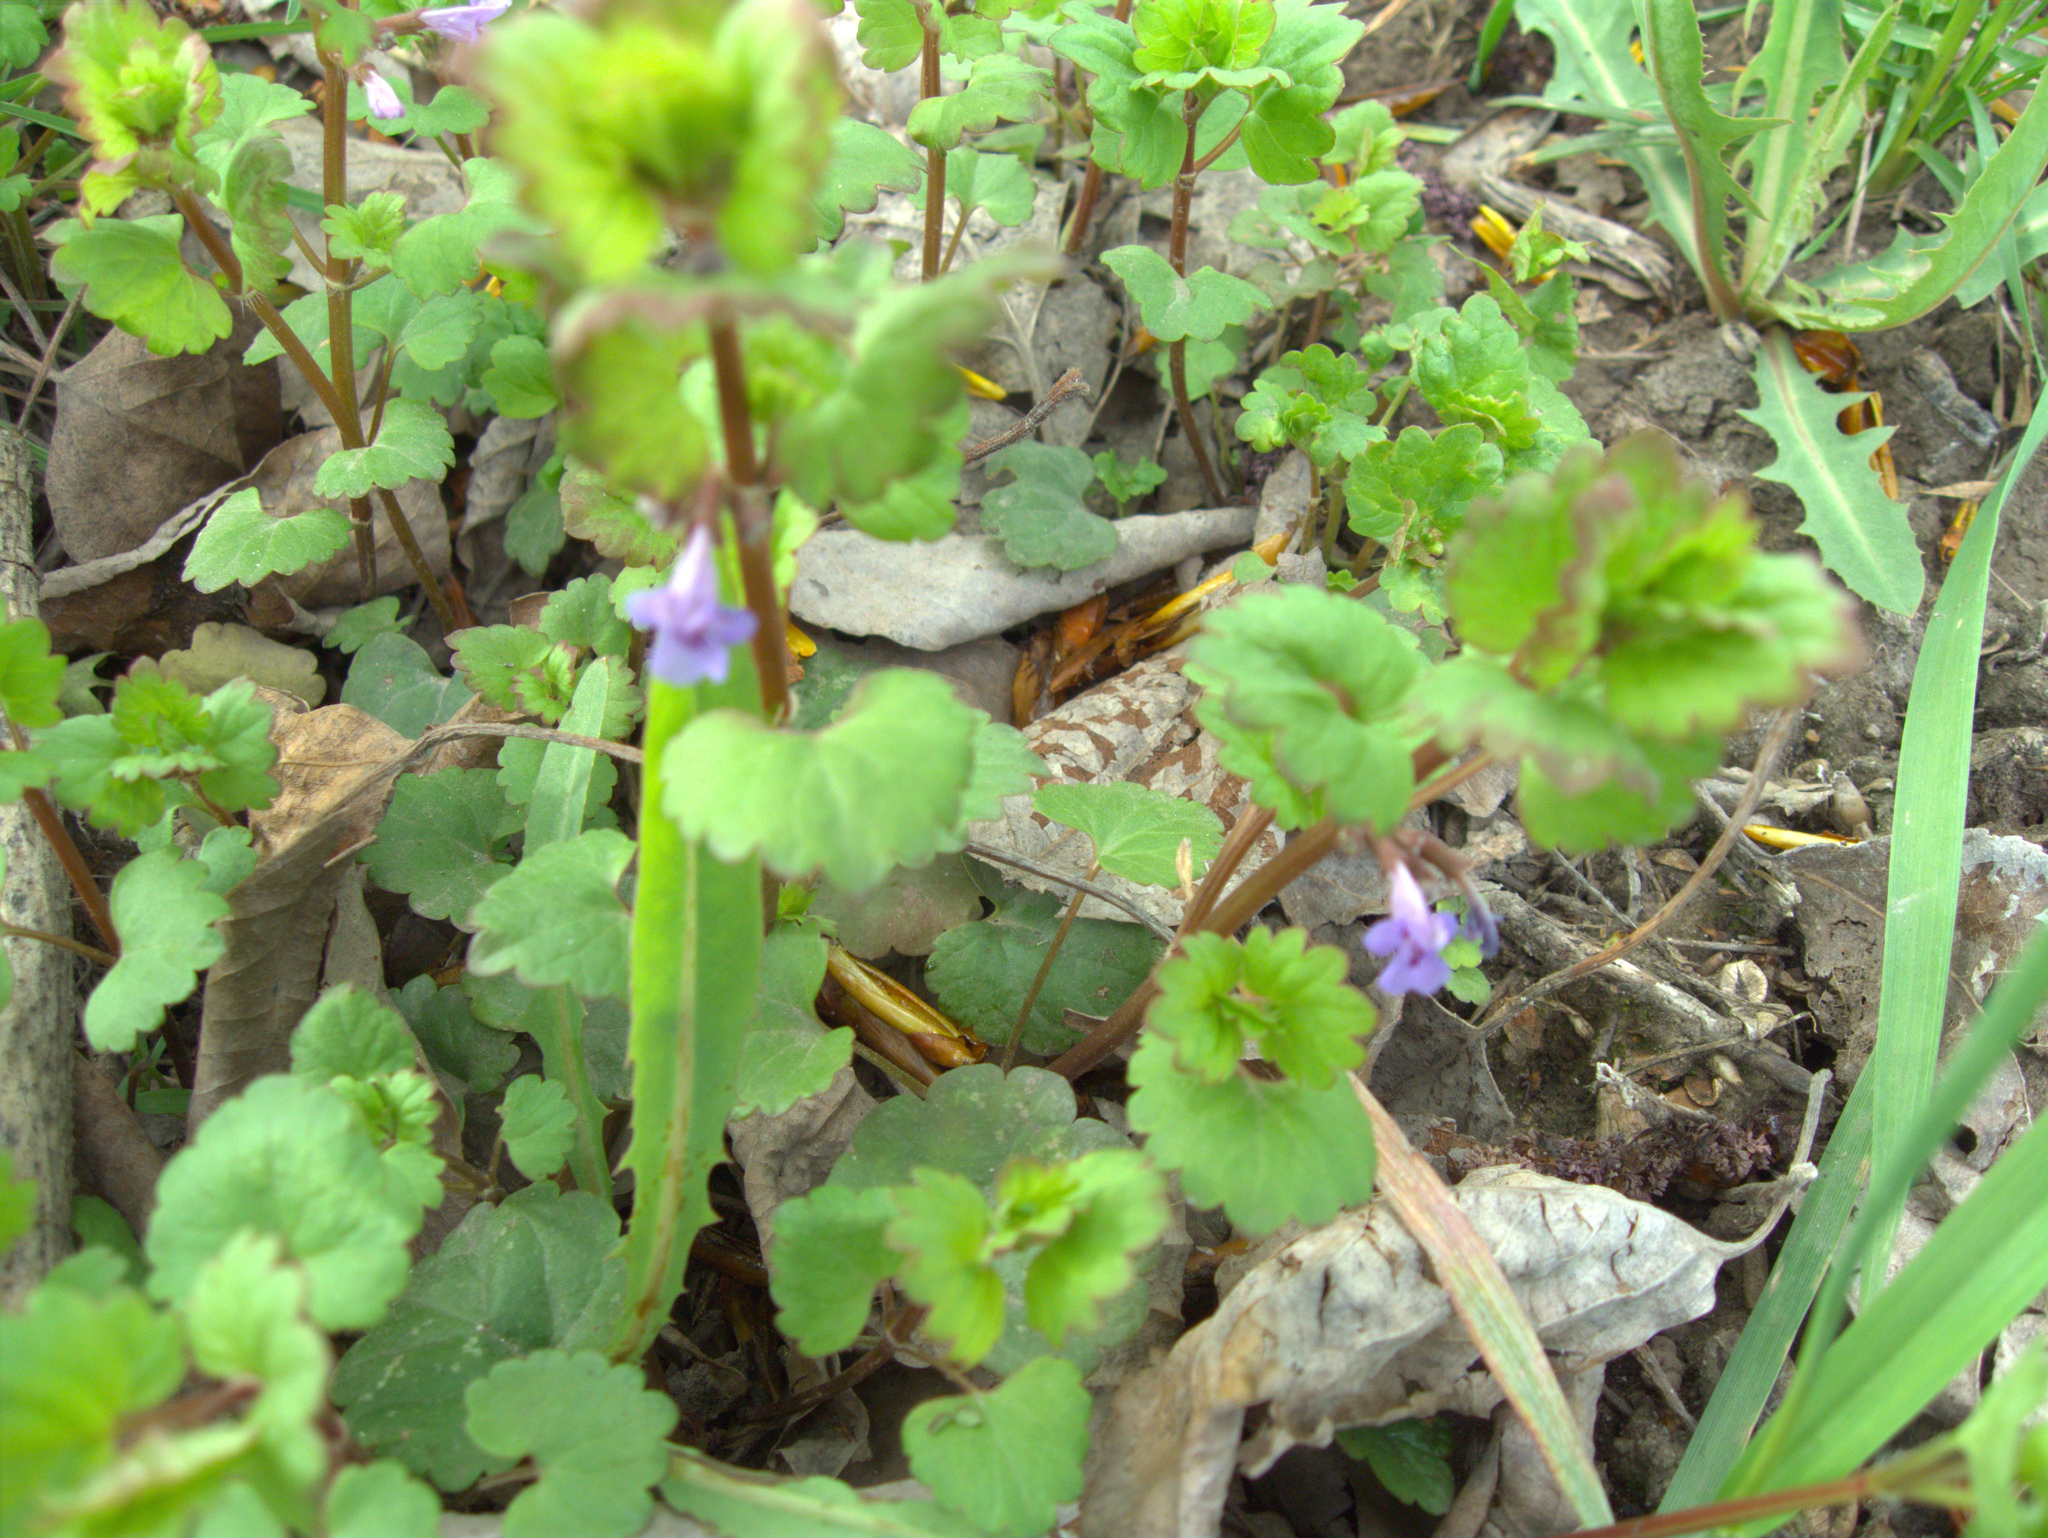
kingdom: Plantae
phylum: Tracheophyta
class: Magnoliopsida
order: Lamiales
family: Lamiaceae
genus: Glechoma
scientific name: Glechoma hederacea
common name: Ground ivy
